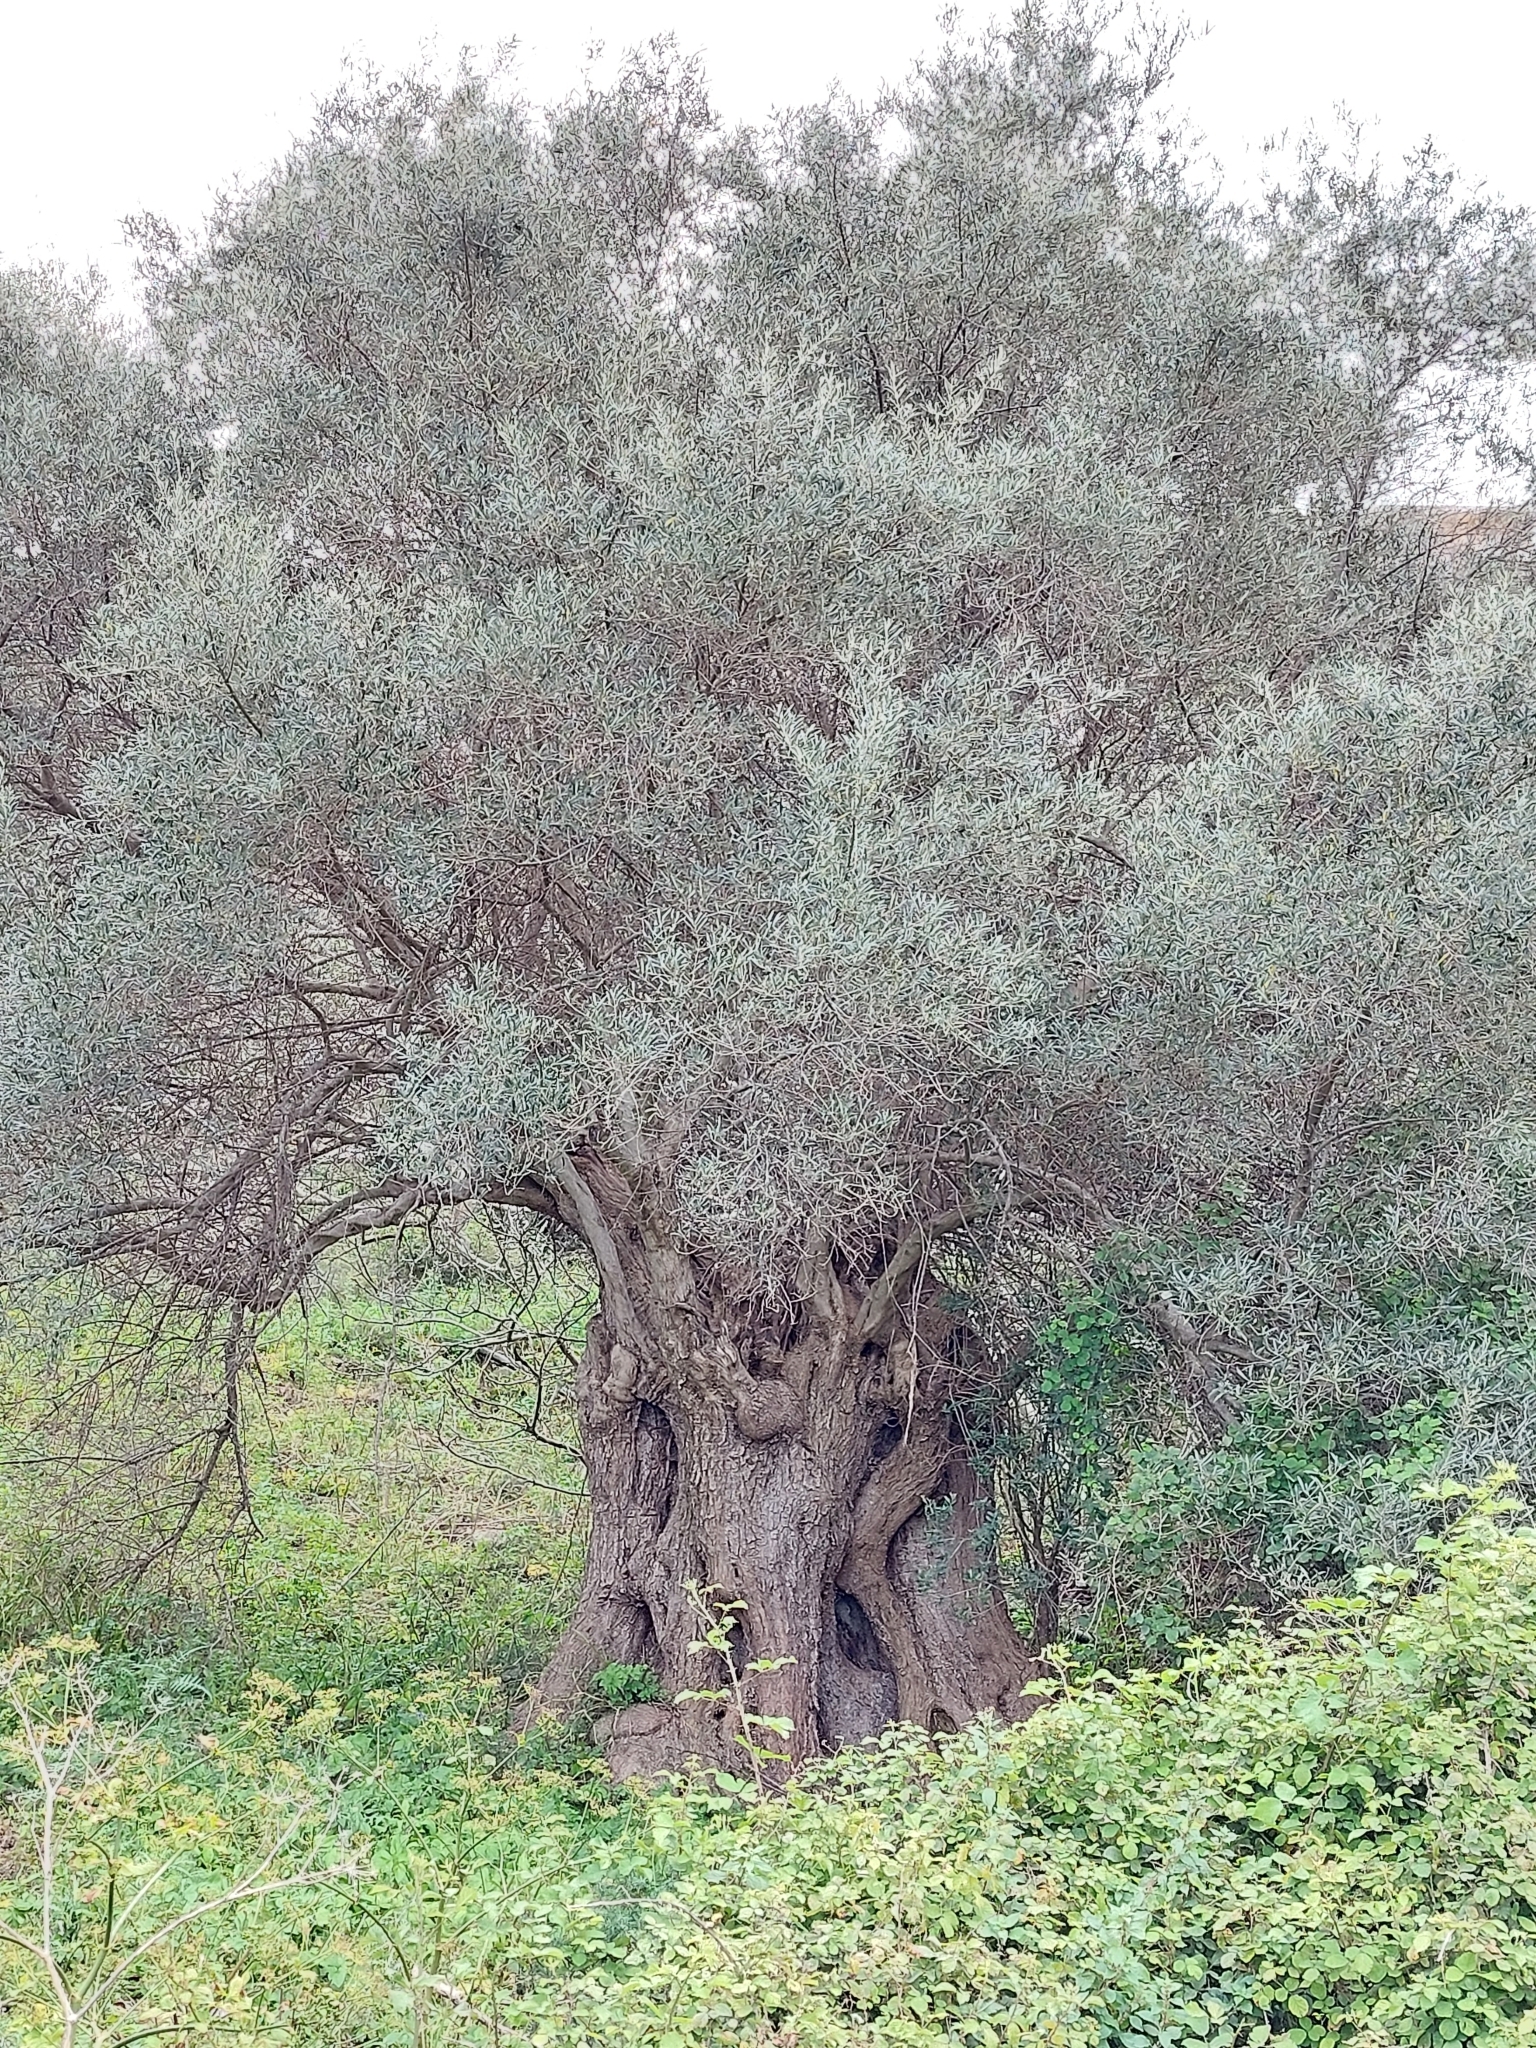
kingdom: Plantae
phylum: Tracheophyta
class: Magnoliopsida
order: Lamiales
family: Oleaceae
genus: Olea
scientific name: Olea europaea
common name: Olive
